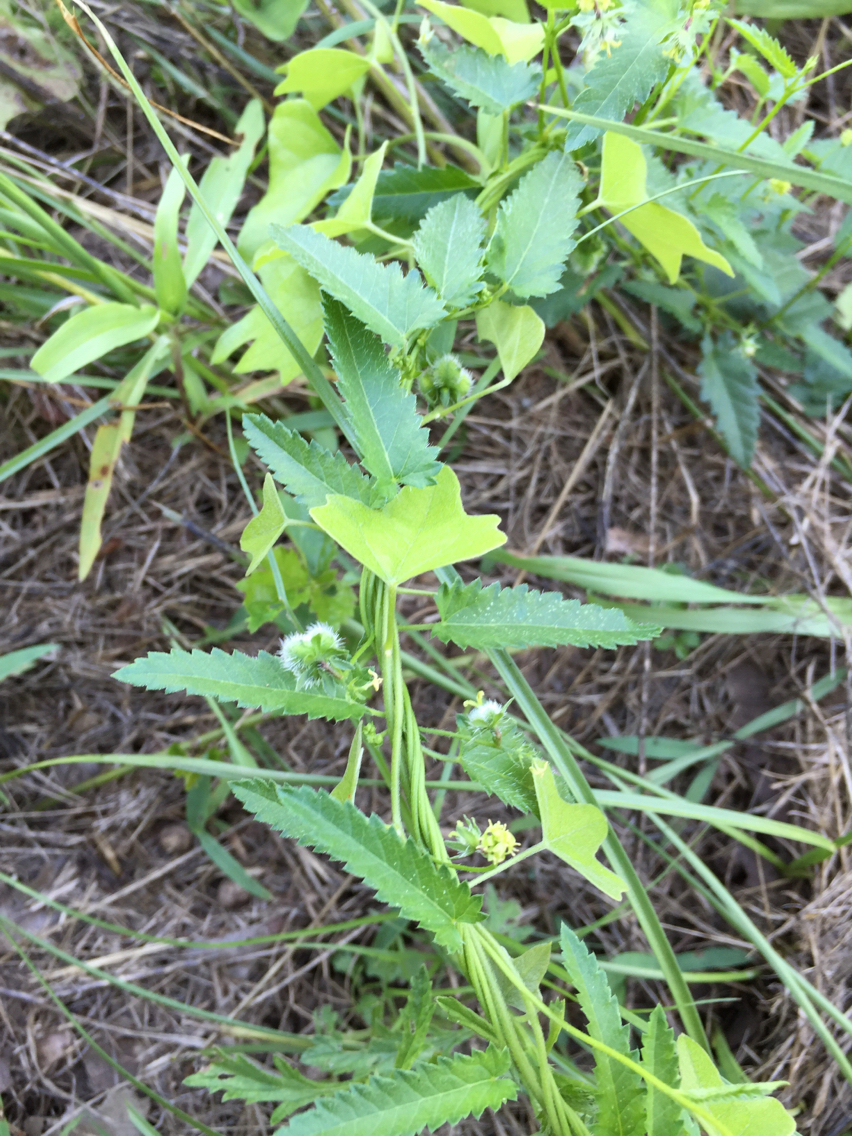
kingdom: Plantae
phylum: Tracheophyta
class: Magnoliopsida
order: Malpighiales
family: Euphorbiaceae
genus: Tragia
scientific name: Tragia ramosa
